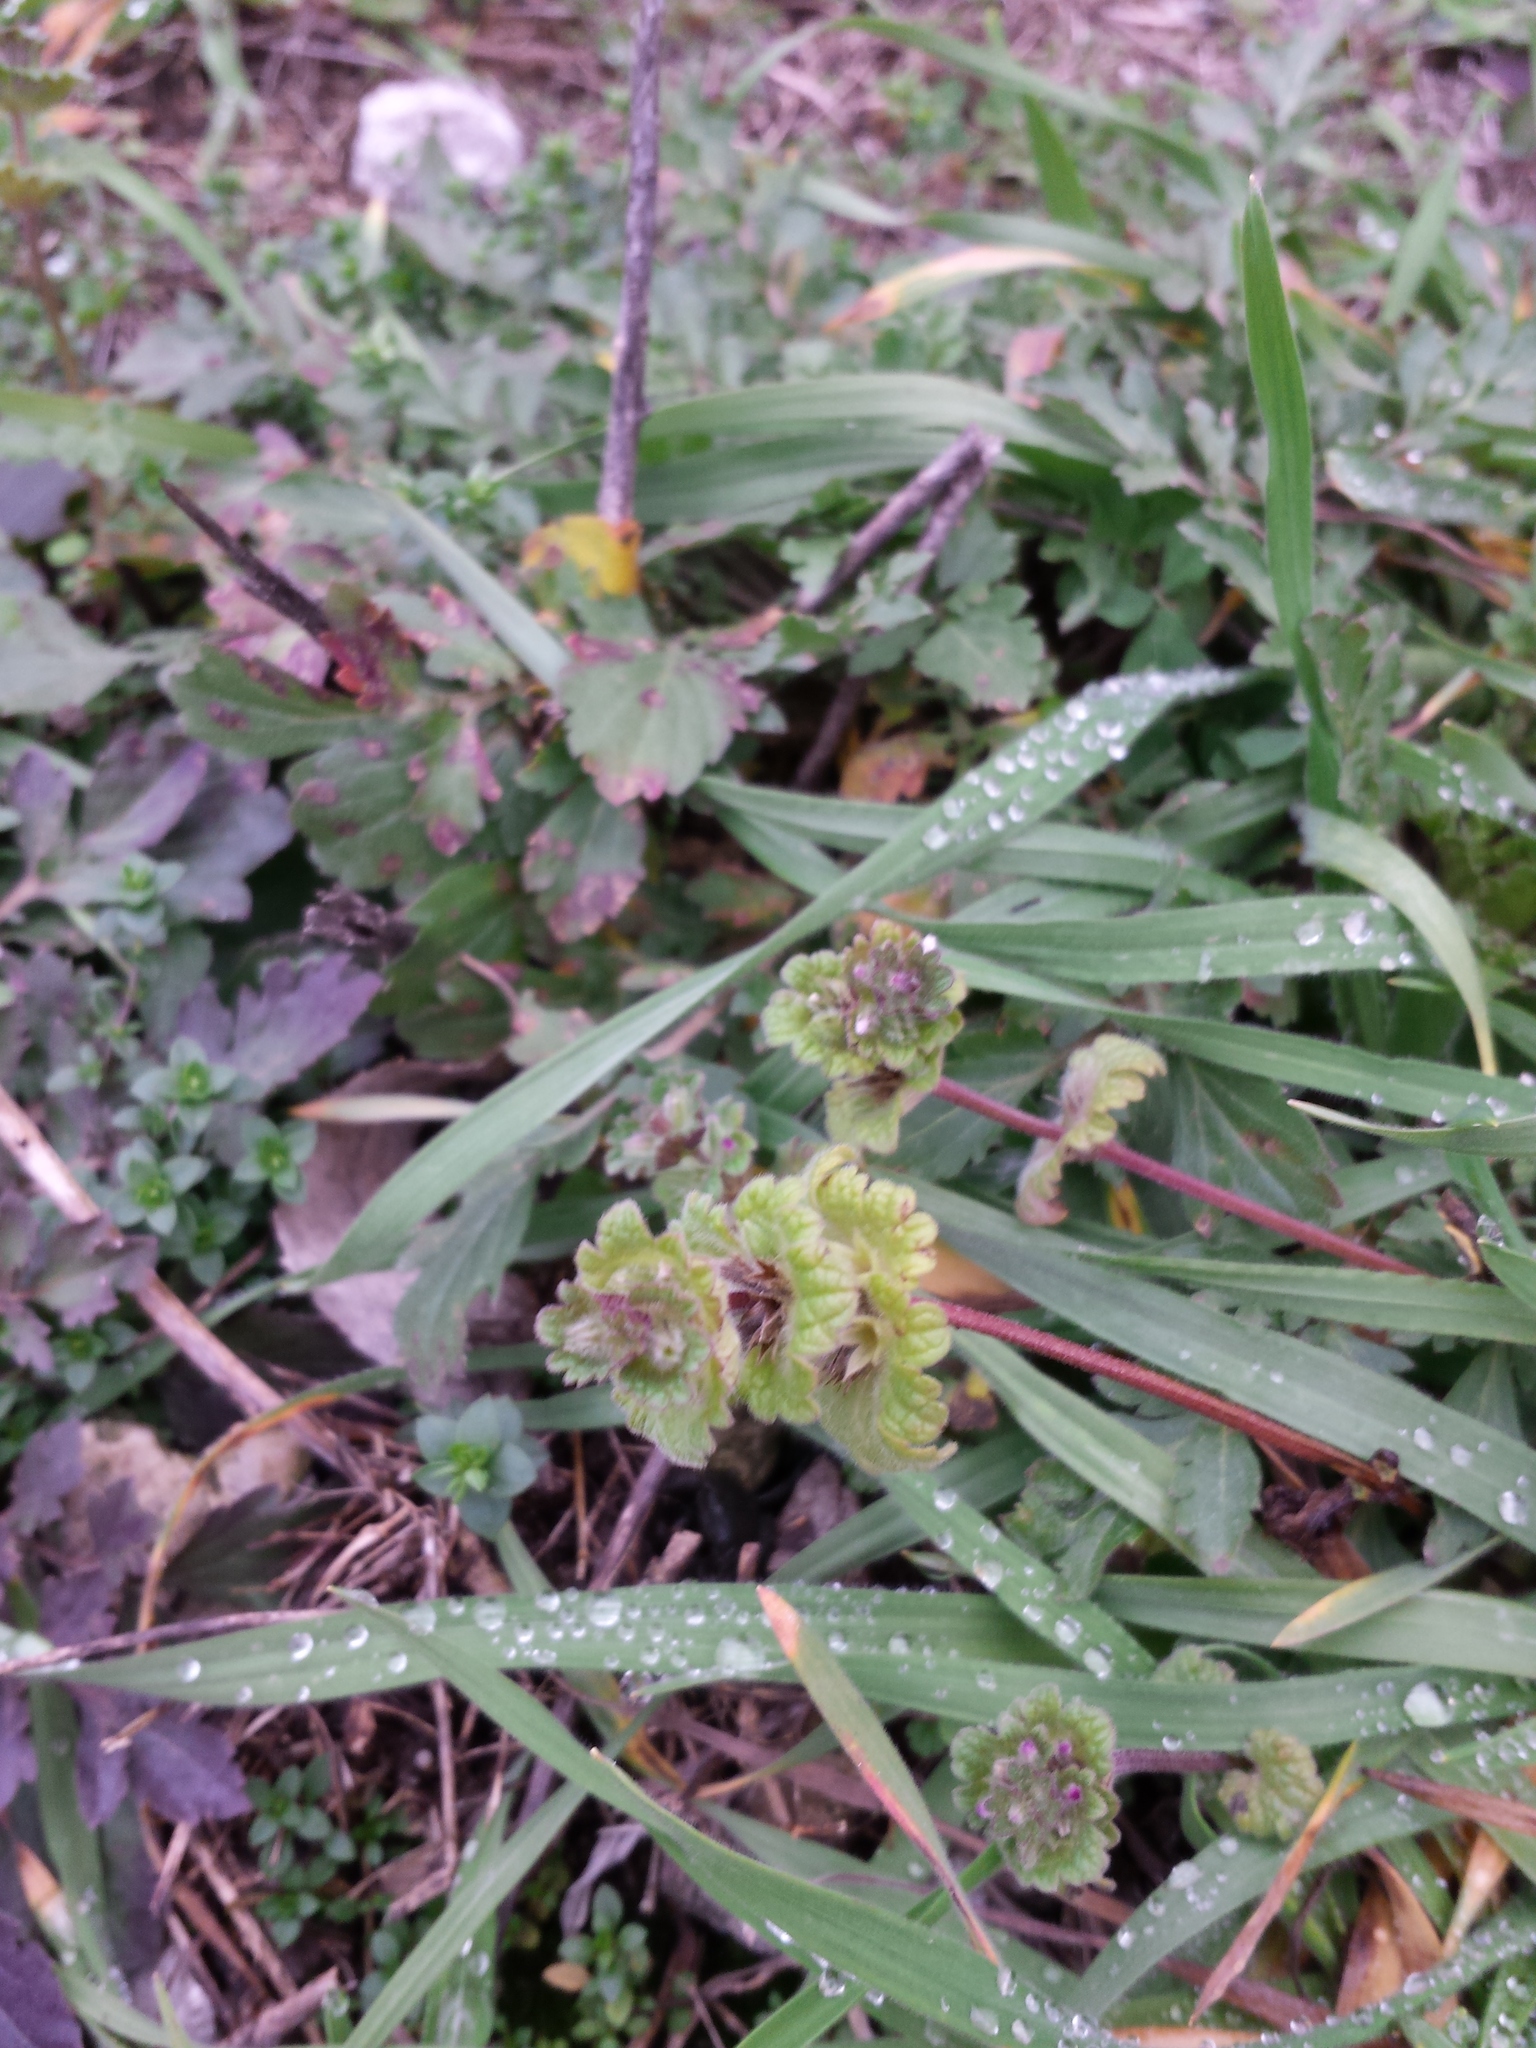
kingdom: Plantae
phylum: Tracheophyta
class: Magnoliopsida
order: Lamiales
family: Lamiaceae
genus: Lamium
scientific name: Lamium amplexicaule
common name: Henbit dead-nettle
